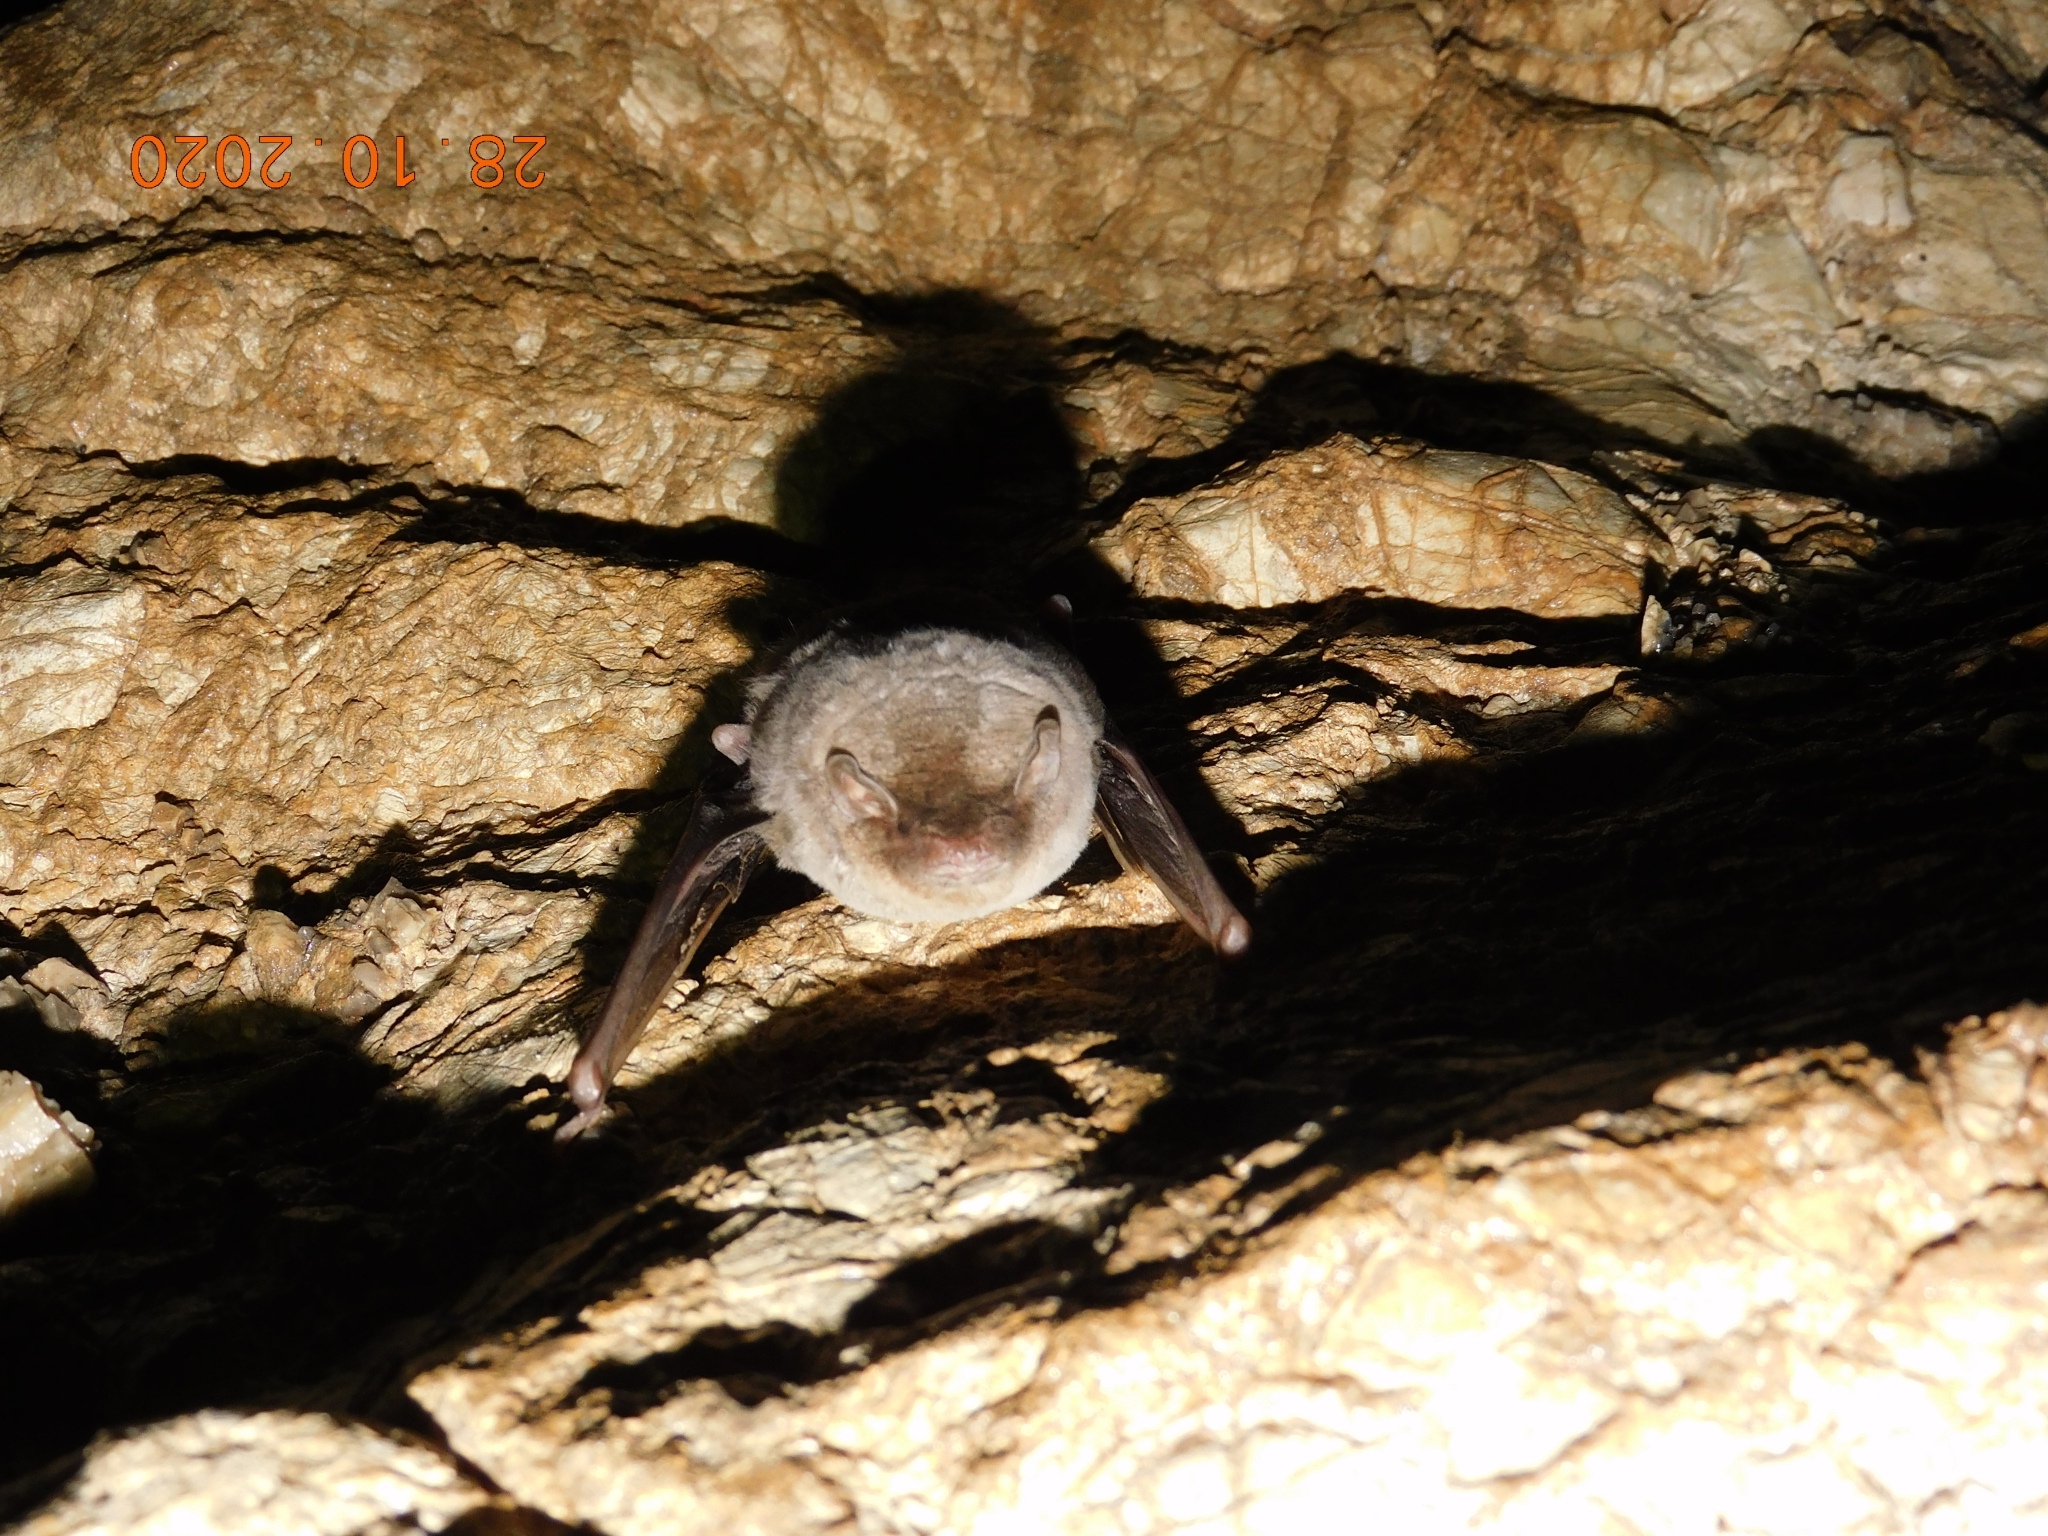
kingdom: Animalia
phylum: Chordata
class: Mammalia
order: Chiroptera
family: Miniopteridae
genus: Miniopterus
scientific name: Miniopterus schreibersii
